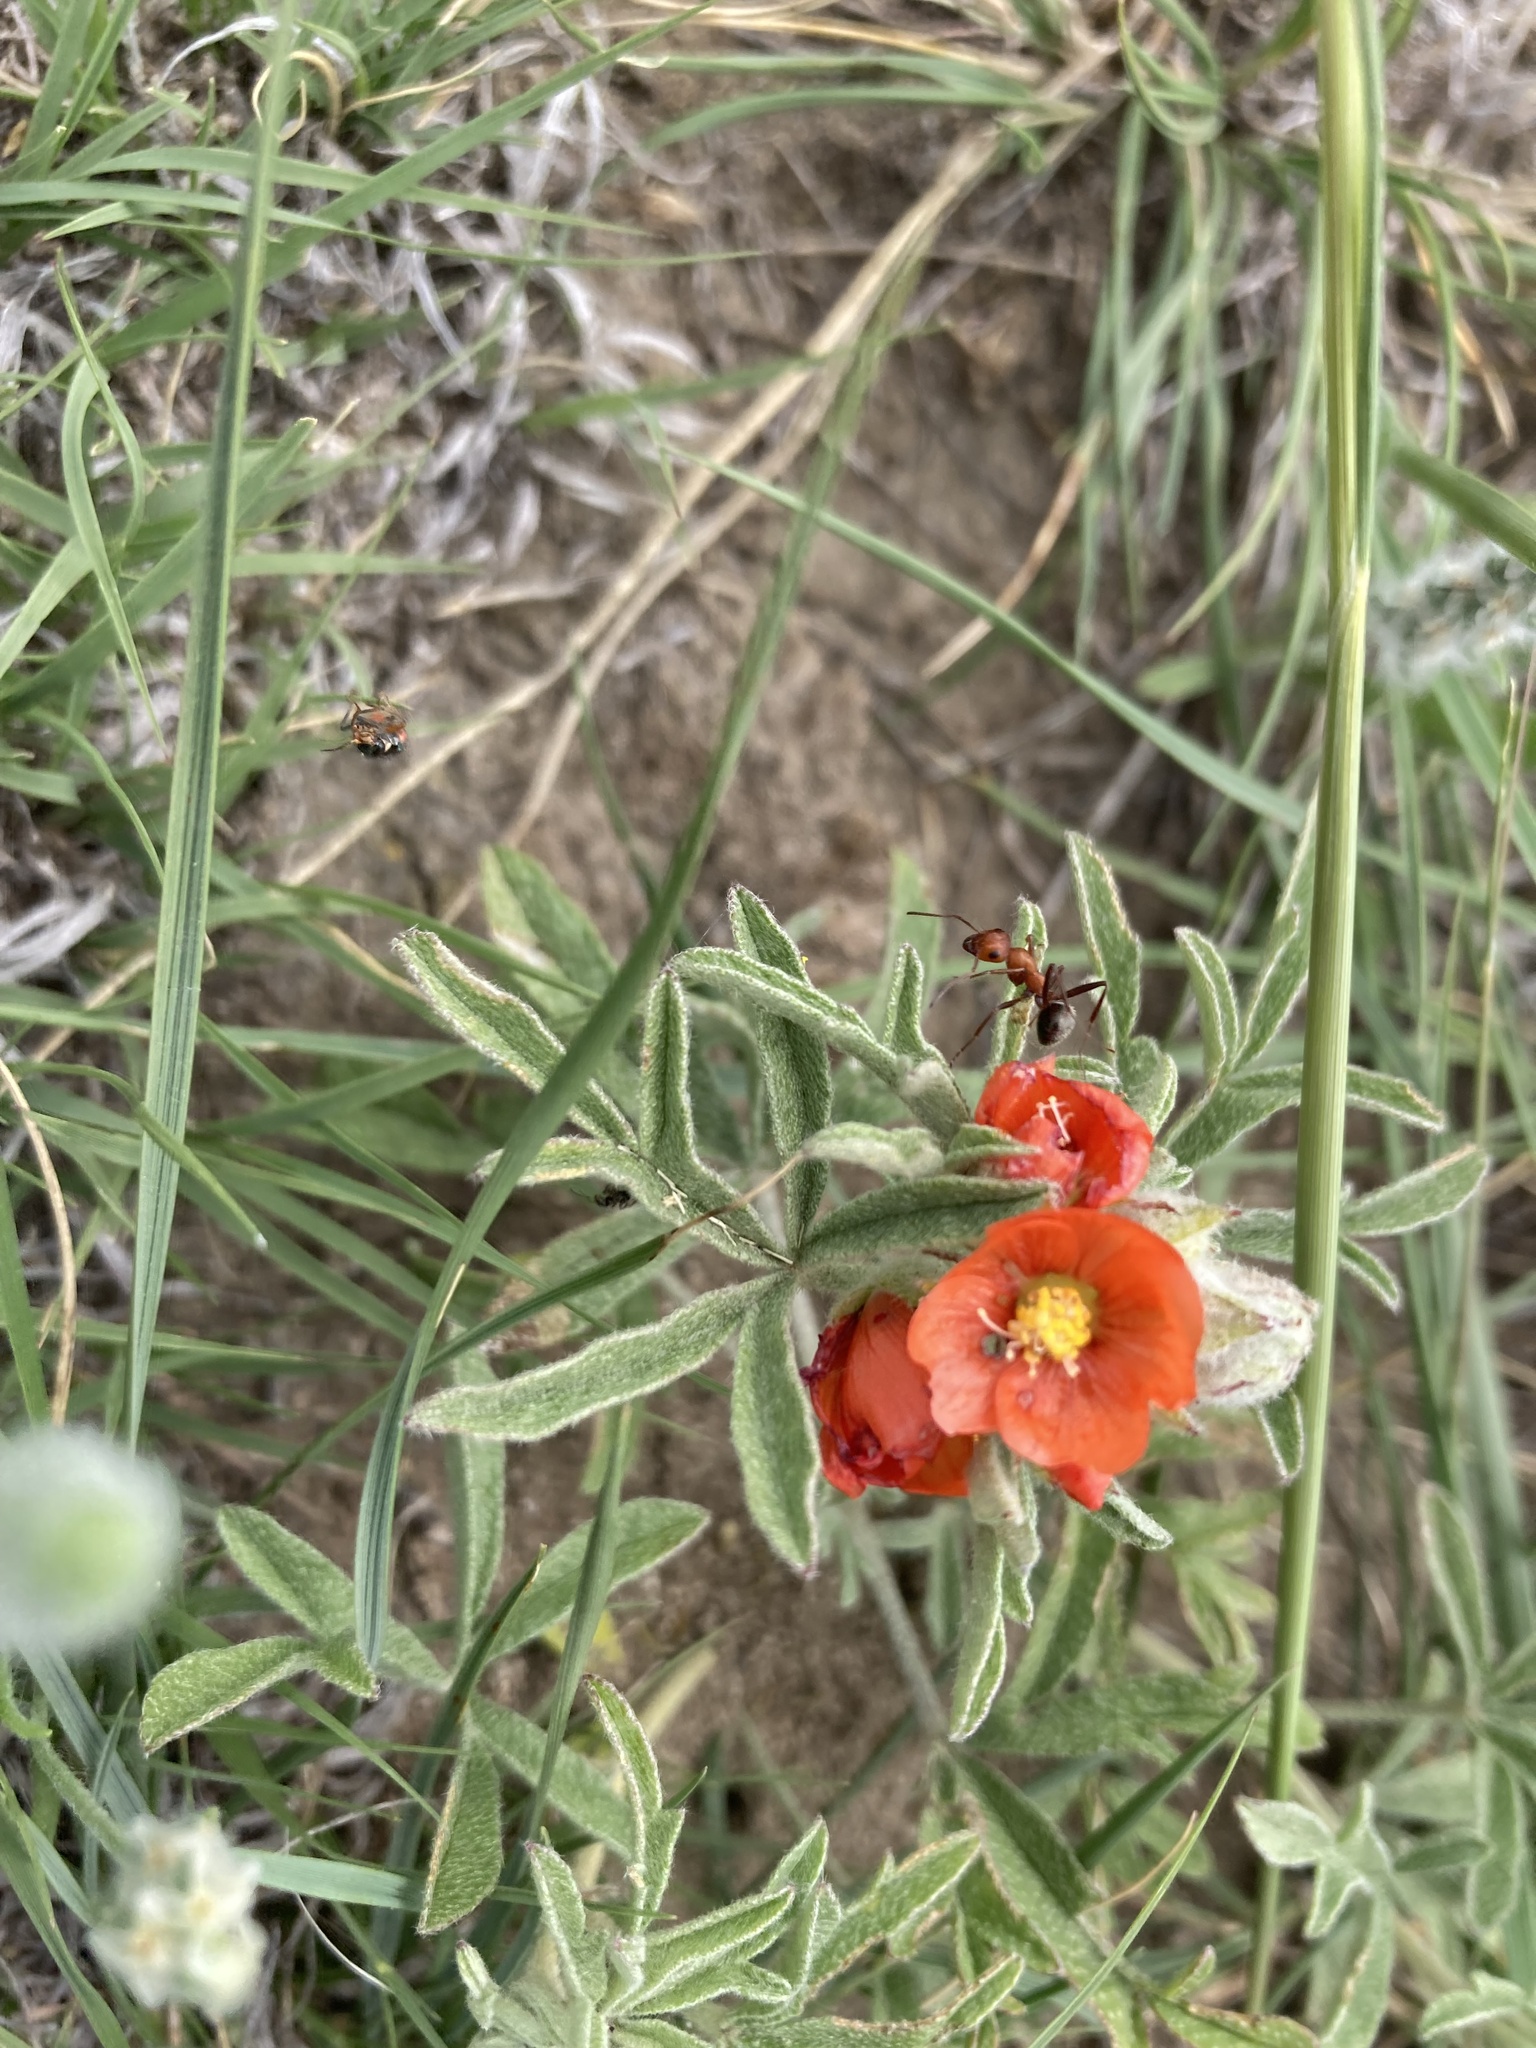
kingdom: Plantae
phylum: Tracheophyta
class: Magnoliopsida
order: Malvales
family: Malvaceae
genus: Sphaeralcea
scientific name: Sphaeralcea coccinea
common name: Moss-rose
